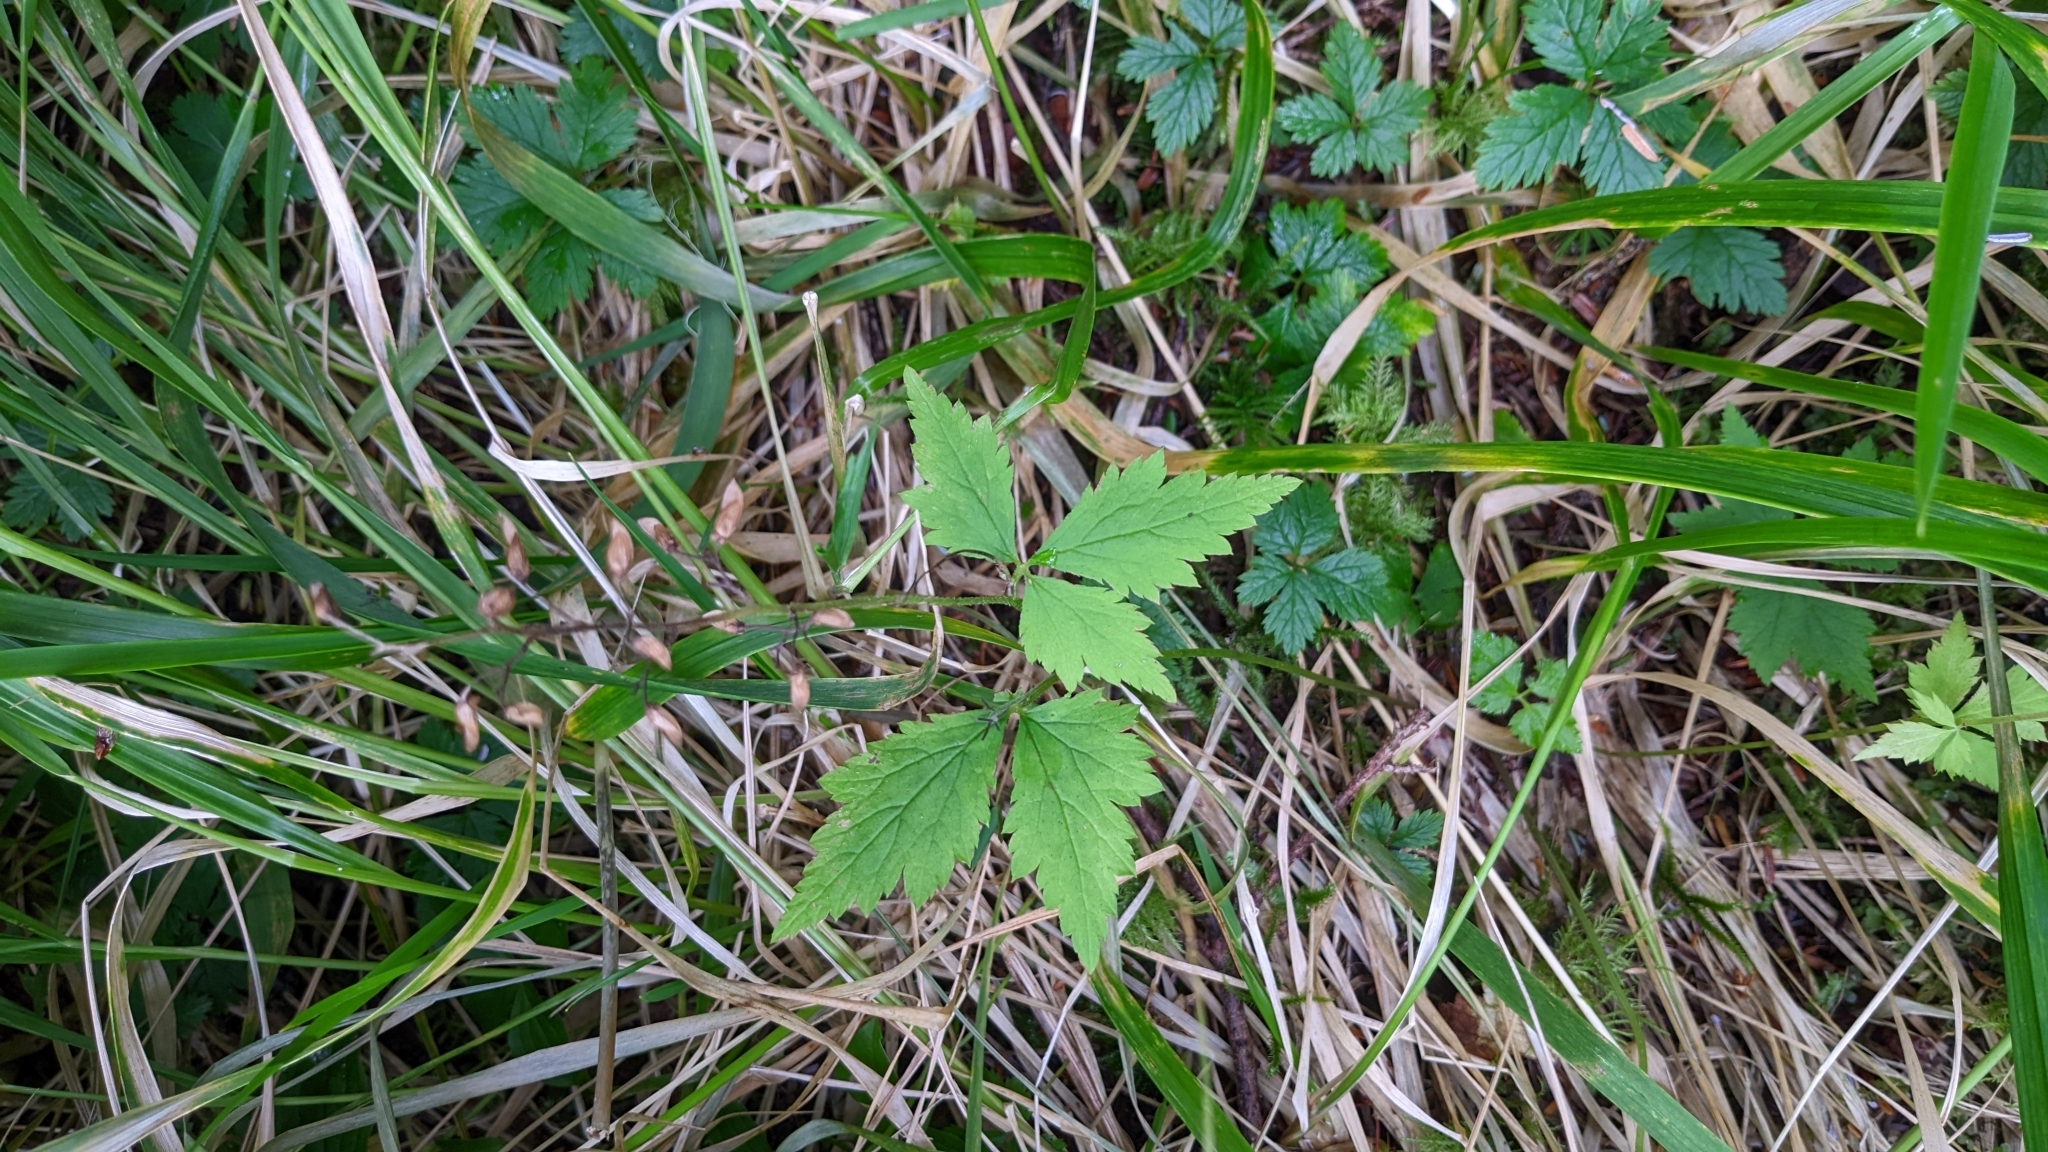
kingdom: Plantae
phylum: Tracheophyta
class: Magnoliopsida
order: Saxifragales
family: Saxifragaceae
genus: Tiarella
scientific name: Tiarella trifoliata
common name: Sugar-scoop
